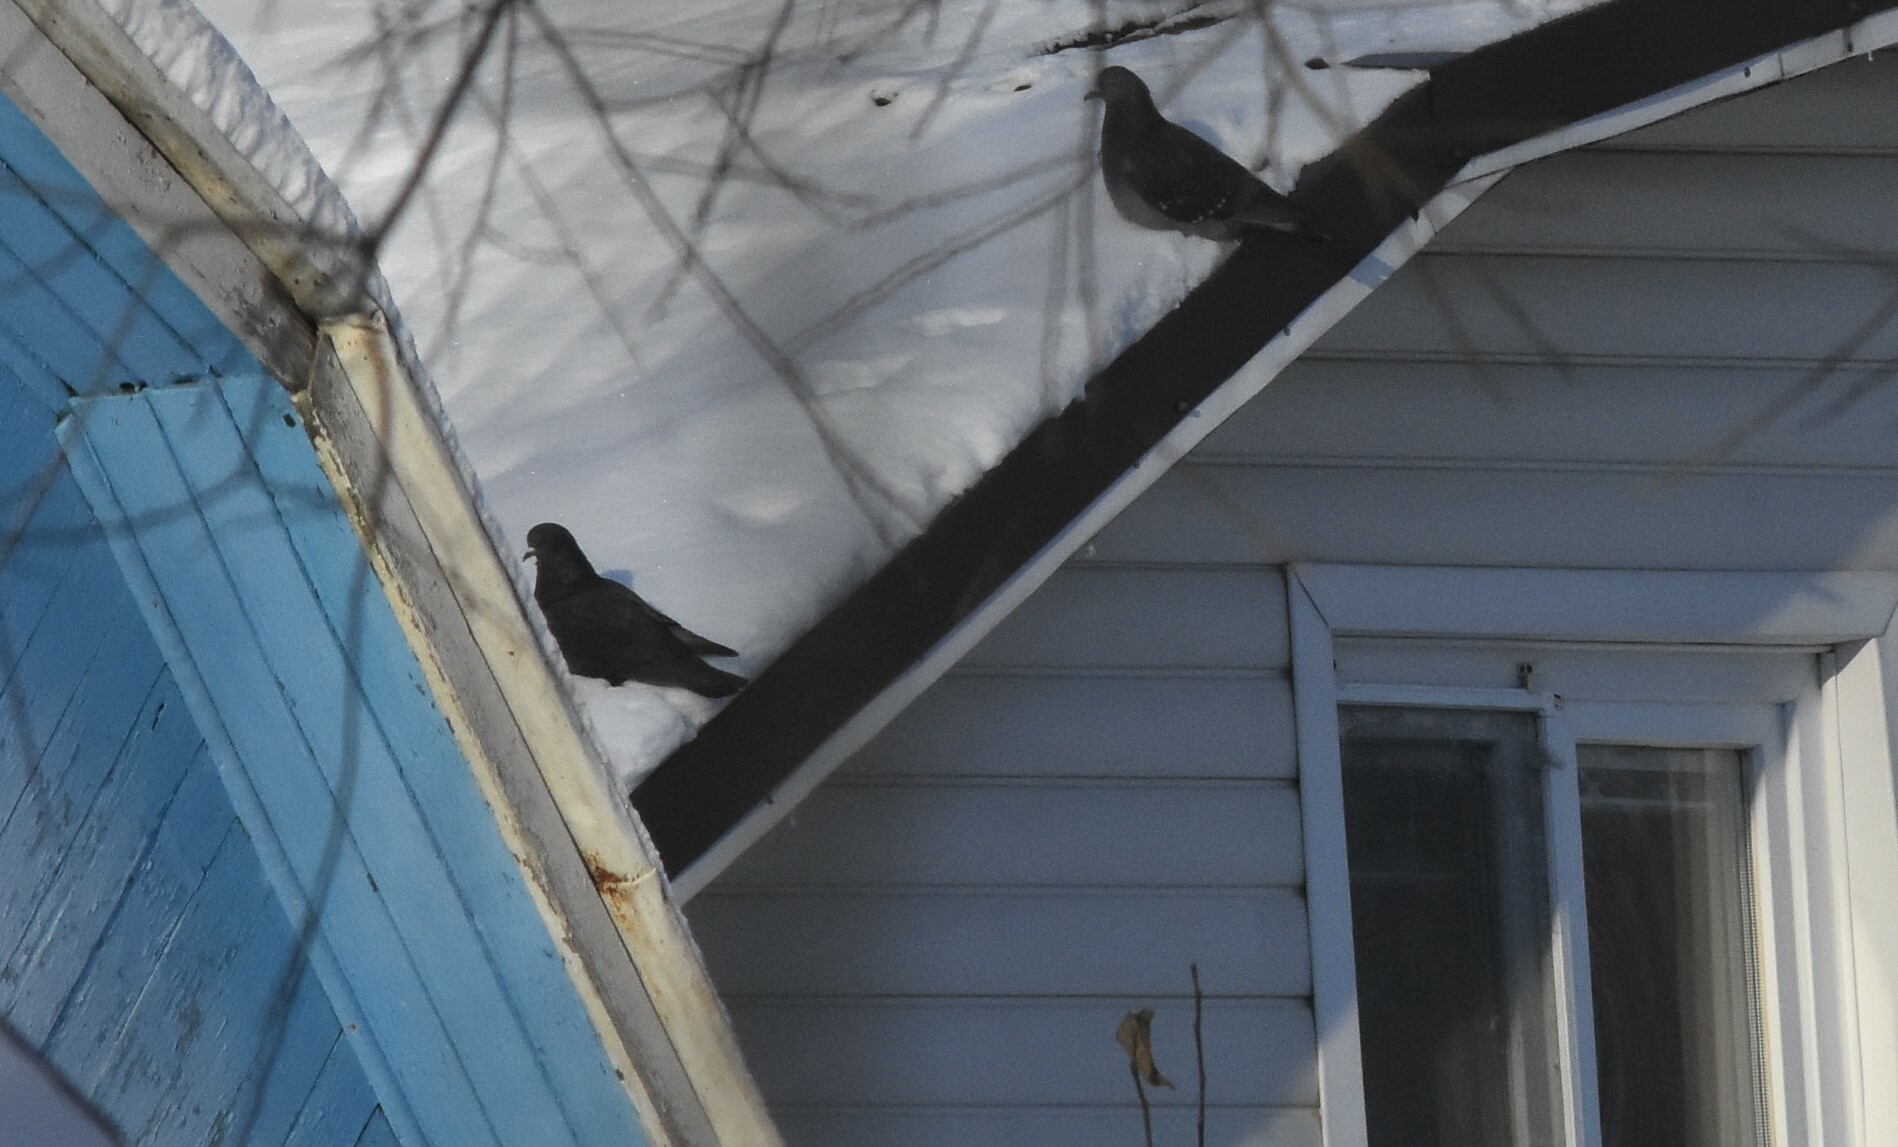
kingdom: Animalia
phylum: Chordata
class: Aves
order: Columbiformes
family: Columbidae
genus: Columba
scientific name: Columba livia
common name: Rock pigeon
